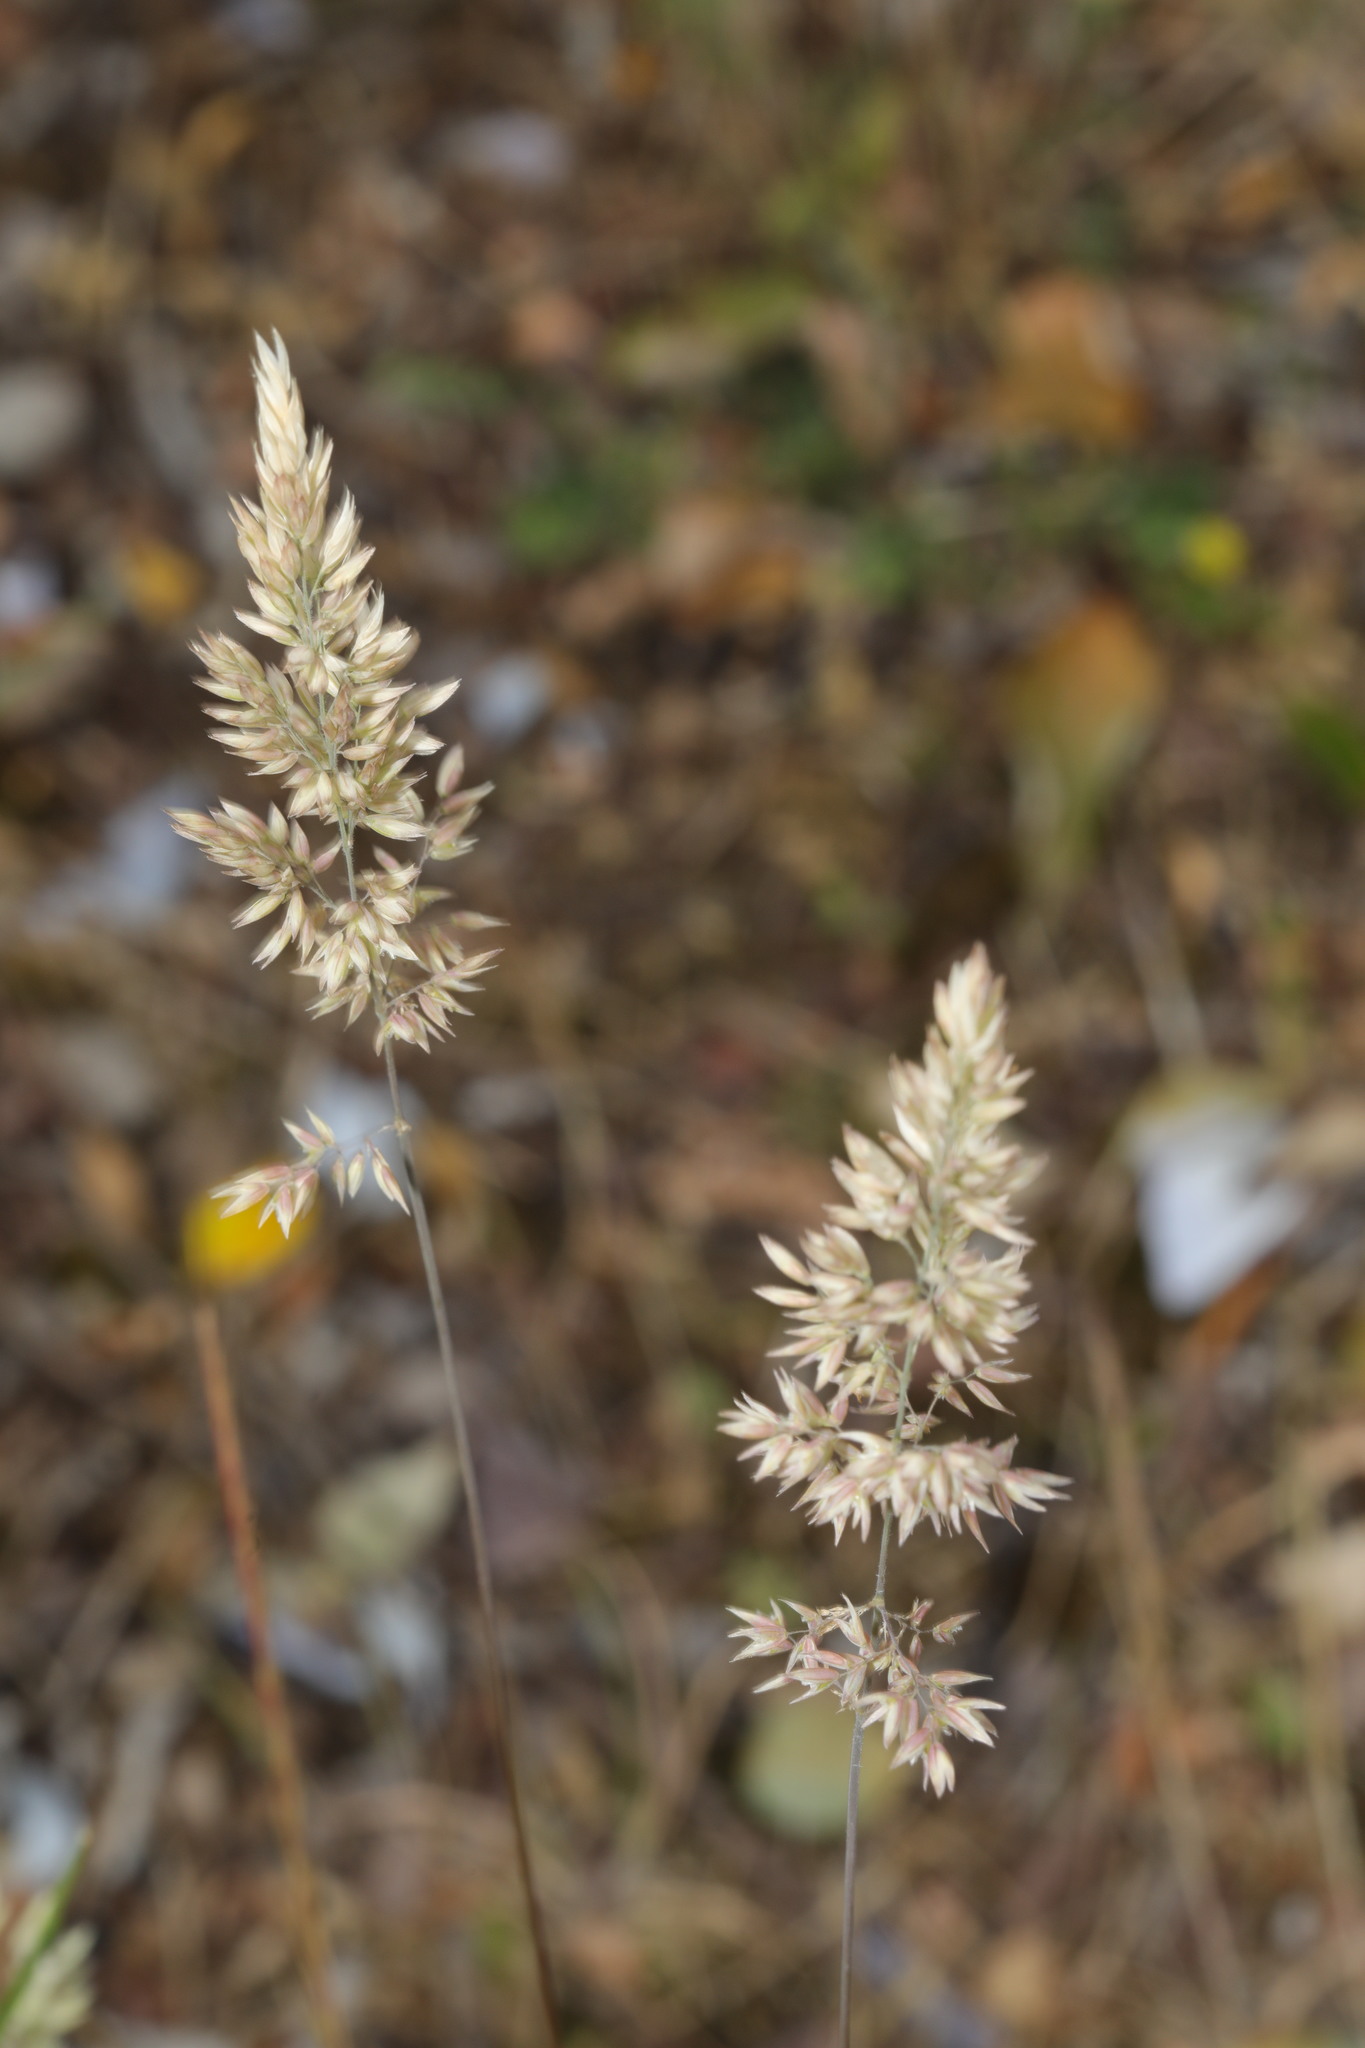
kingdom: Plantae
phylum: Tracheophyta
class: Liliopsida
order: Poales
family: Poaceae
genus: Holcus
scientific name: Holcus lanatus
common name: Yorkshire-fog
